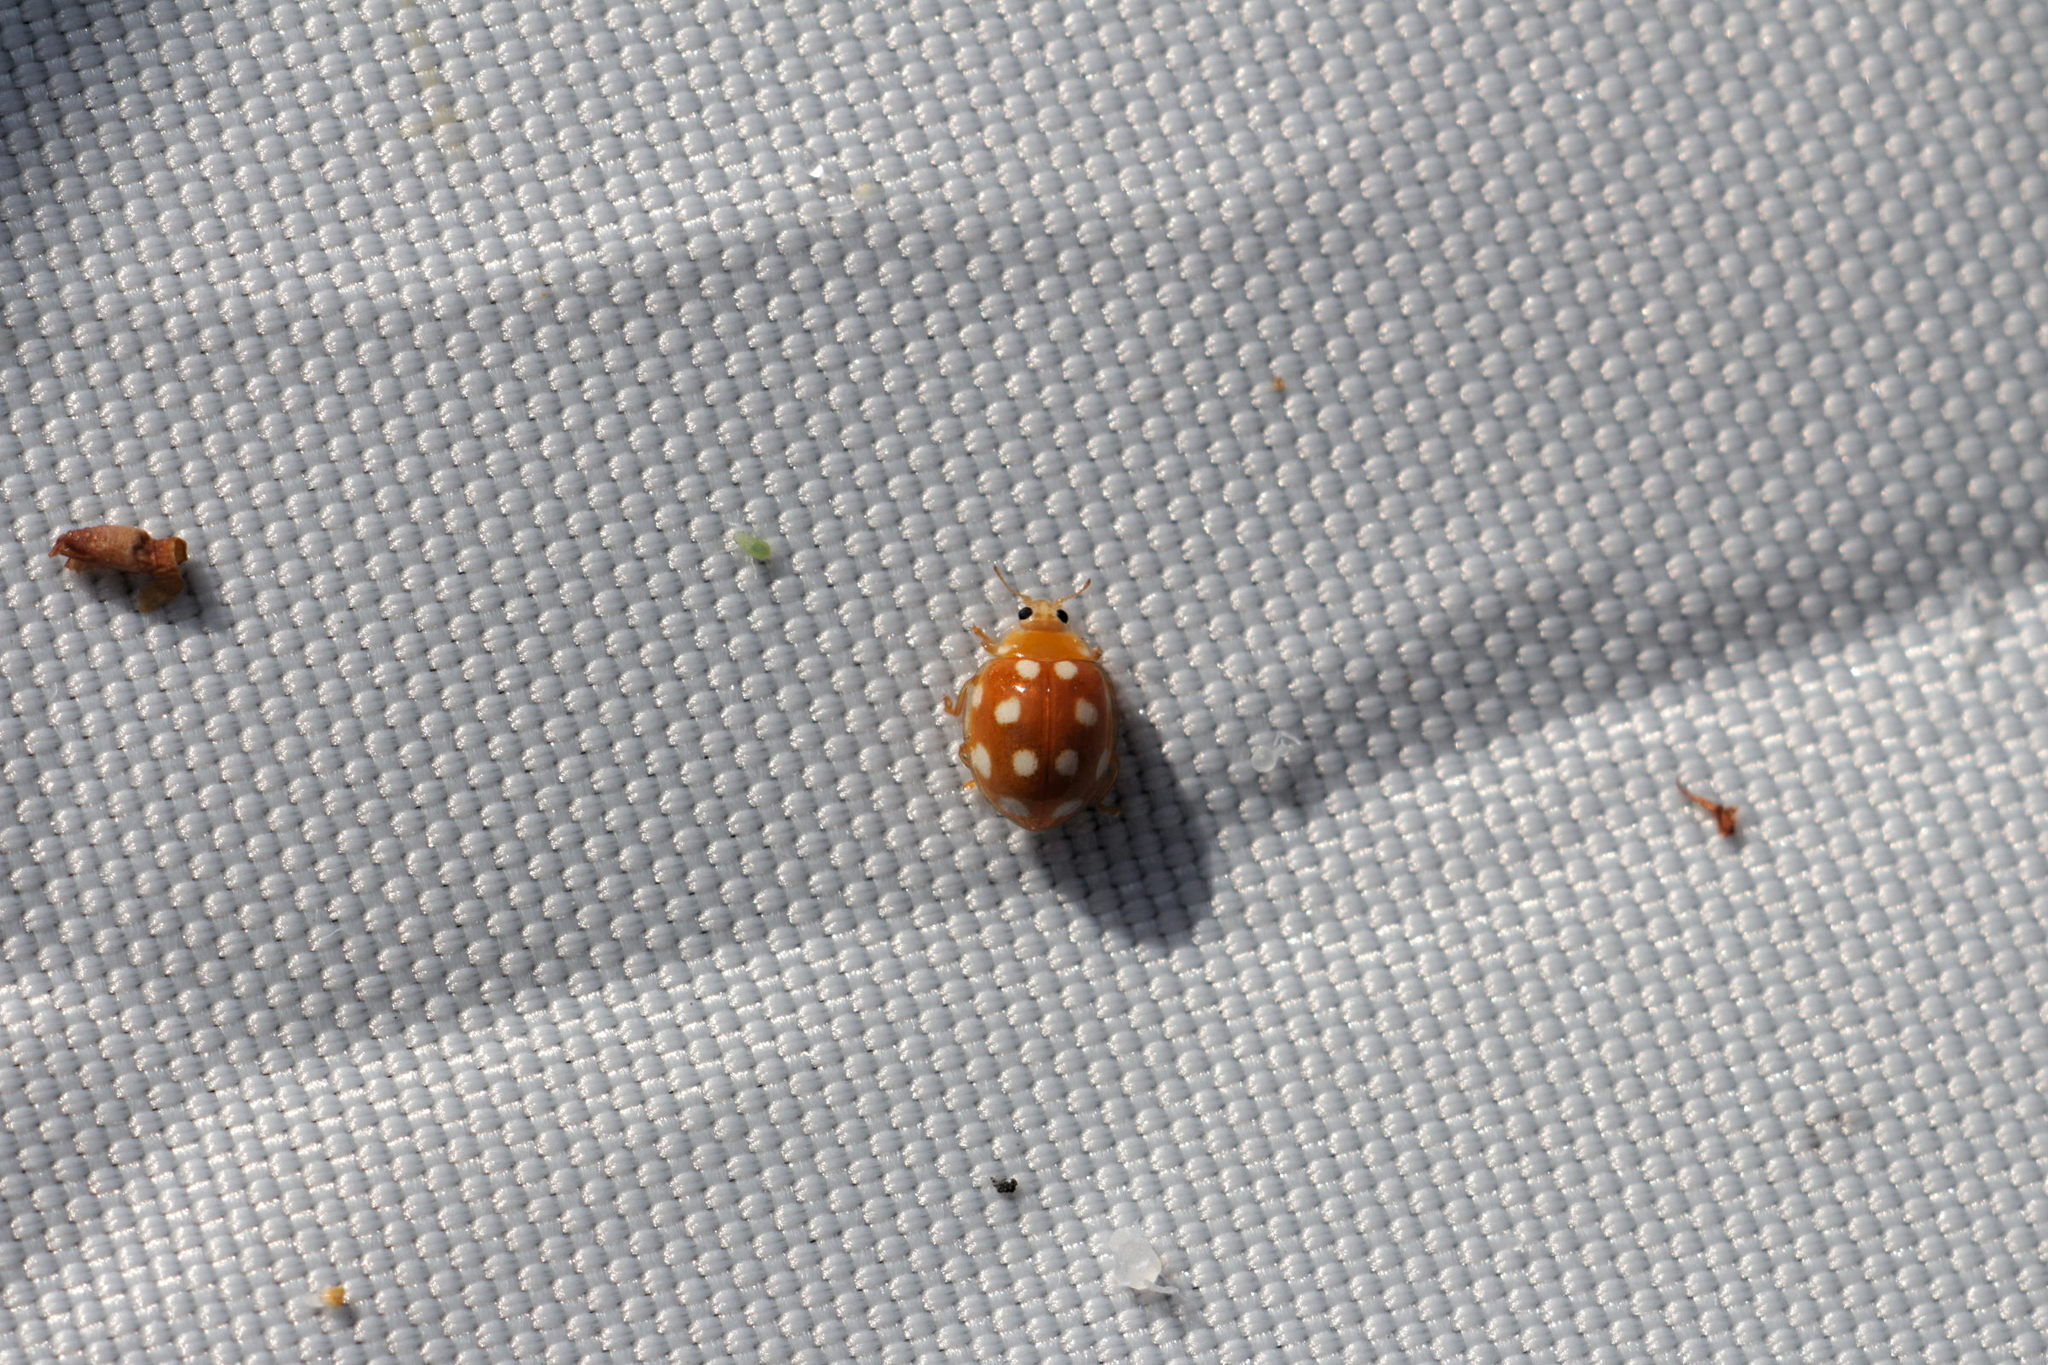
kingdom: Animalia
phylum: Arthropoda
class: Insecta
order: Coleoptera
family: Coccinellidae
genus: Vibidia
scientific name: Vibidia duodecimguttata
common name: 12-spot ladybird
